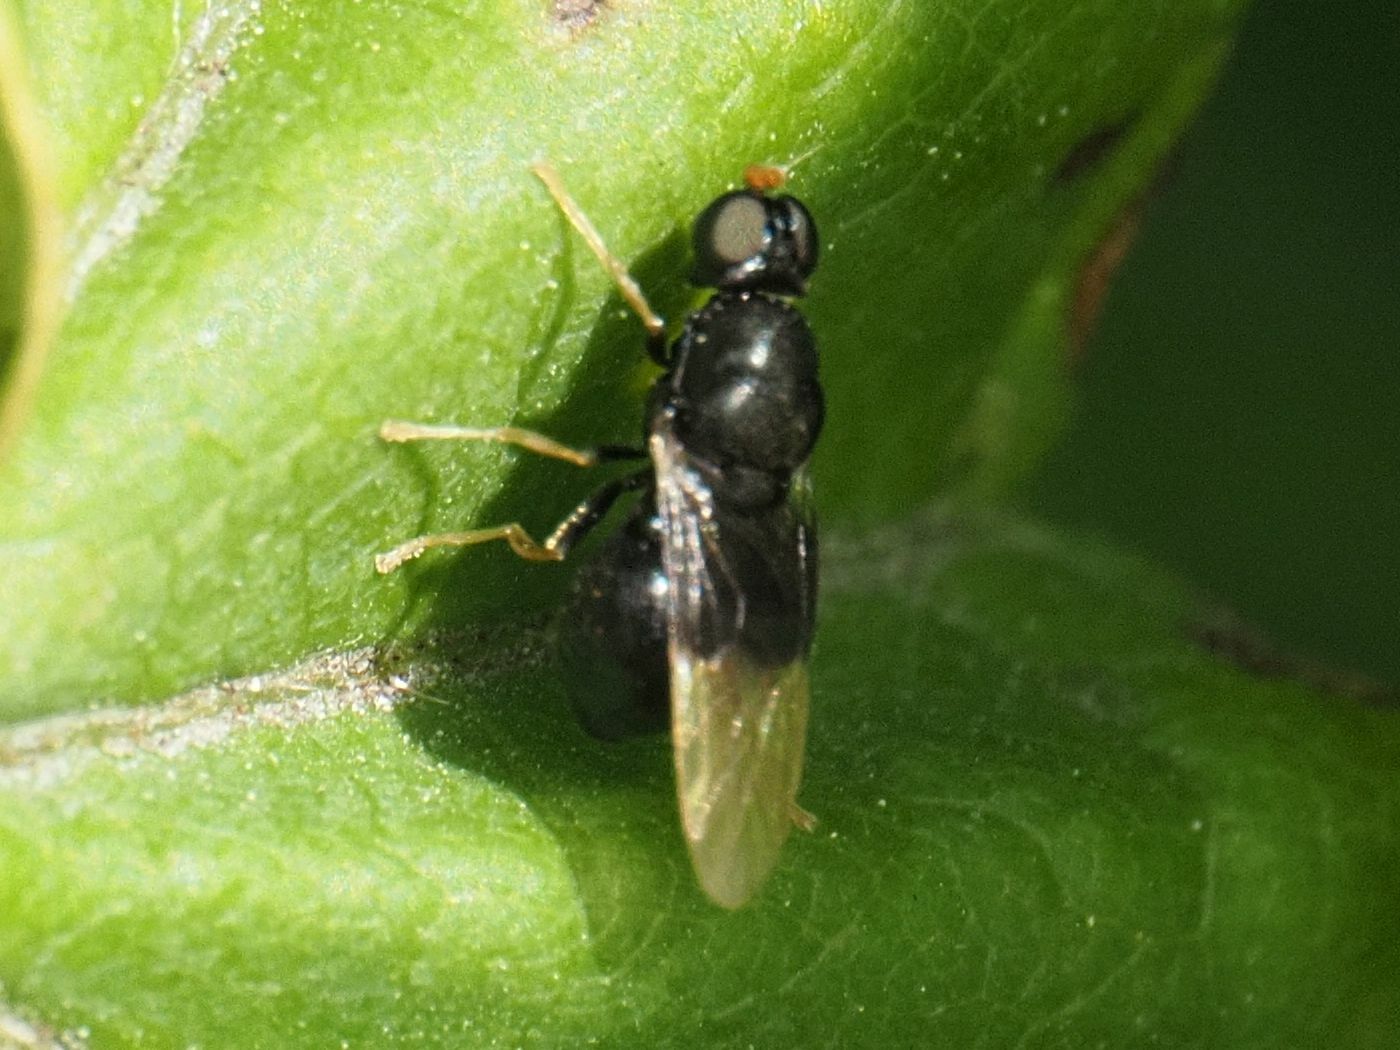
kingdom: Animalia
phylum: Arthropoda
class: Insecta
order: Diptera
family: Stratiomyidae
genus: Pachygaster
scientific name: Pachygaster atra
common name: Dark-winged black
